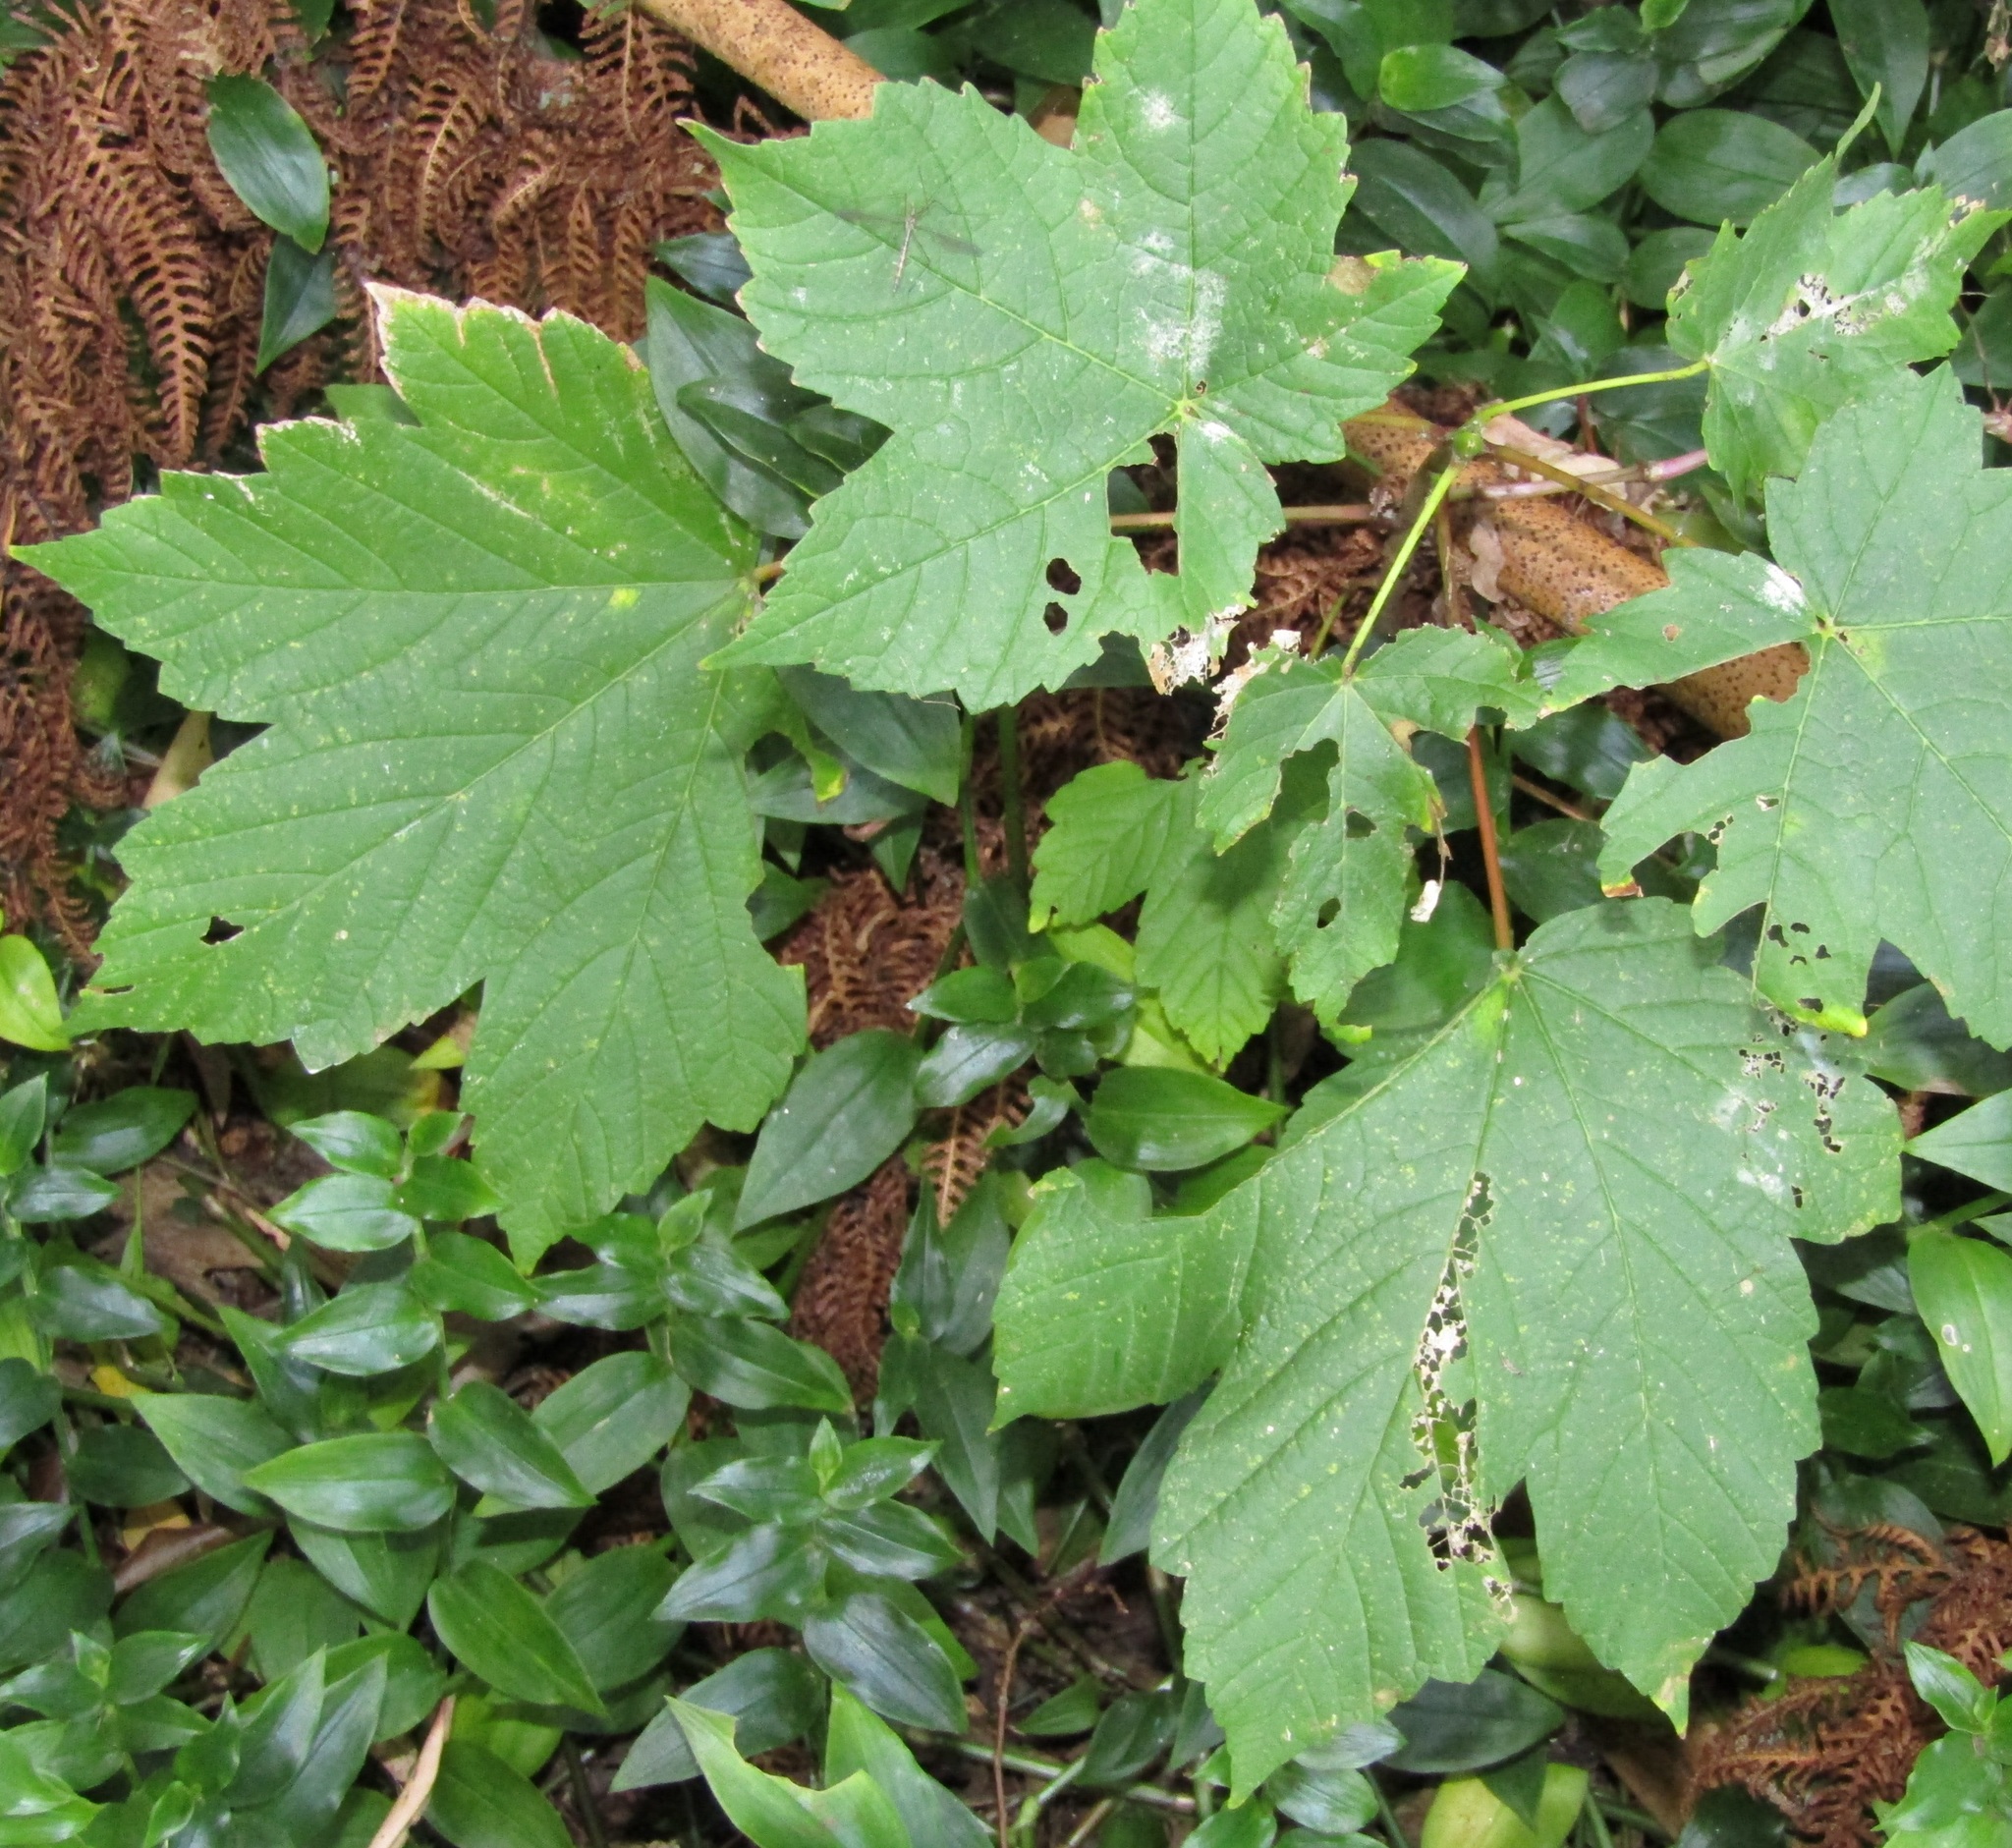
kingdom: Plantae
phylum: Tracheophyta
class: Magnoliopsida
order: Sapindales
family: Sapindaceae
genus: Acer
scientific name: Acer pseudoplatanus
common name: Sycamore
